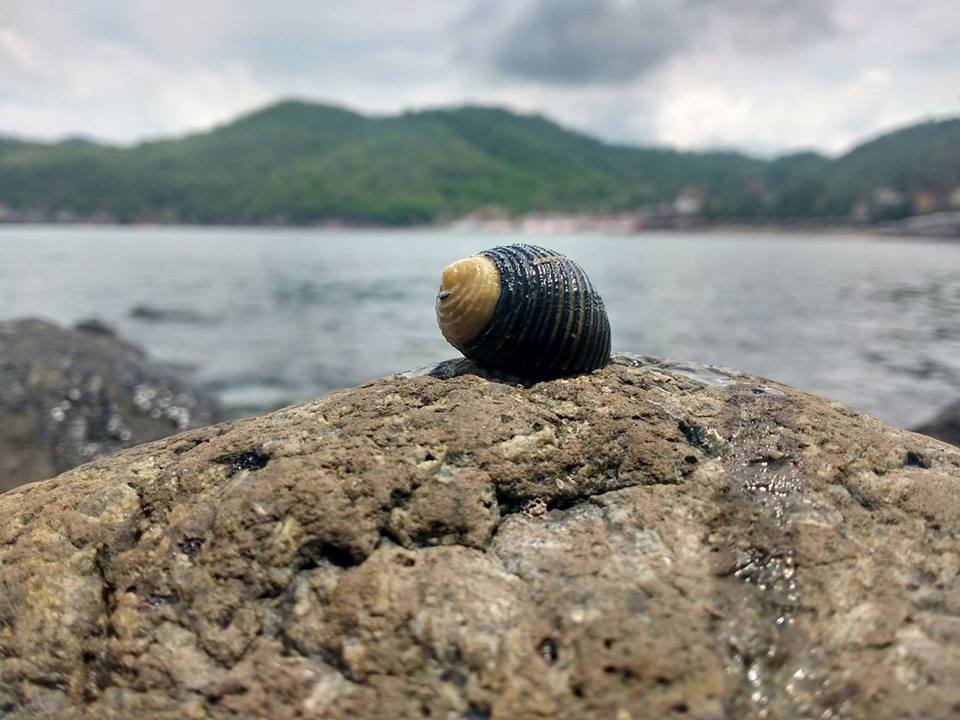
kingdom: Animalia
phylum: Mollusca
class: Gastropoda
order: Cycloneritida
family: Neritidae
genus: Nerita
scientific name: Nerita scabricosta
